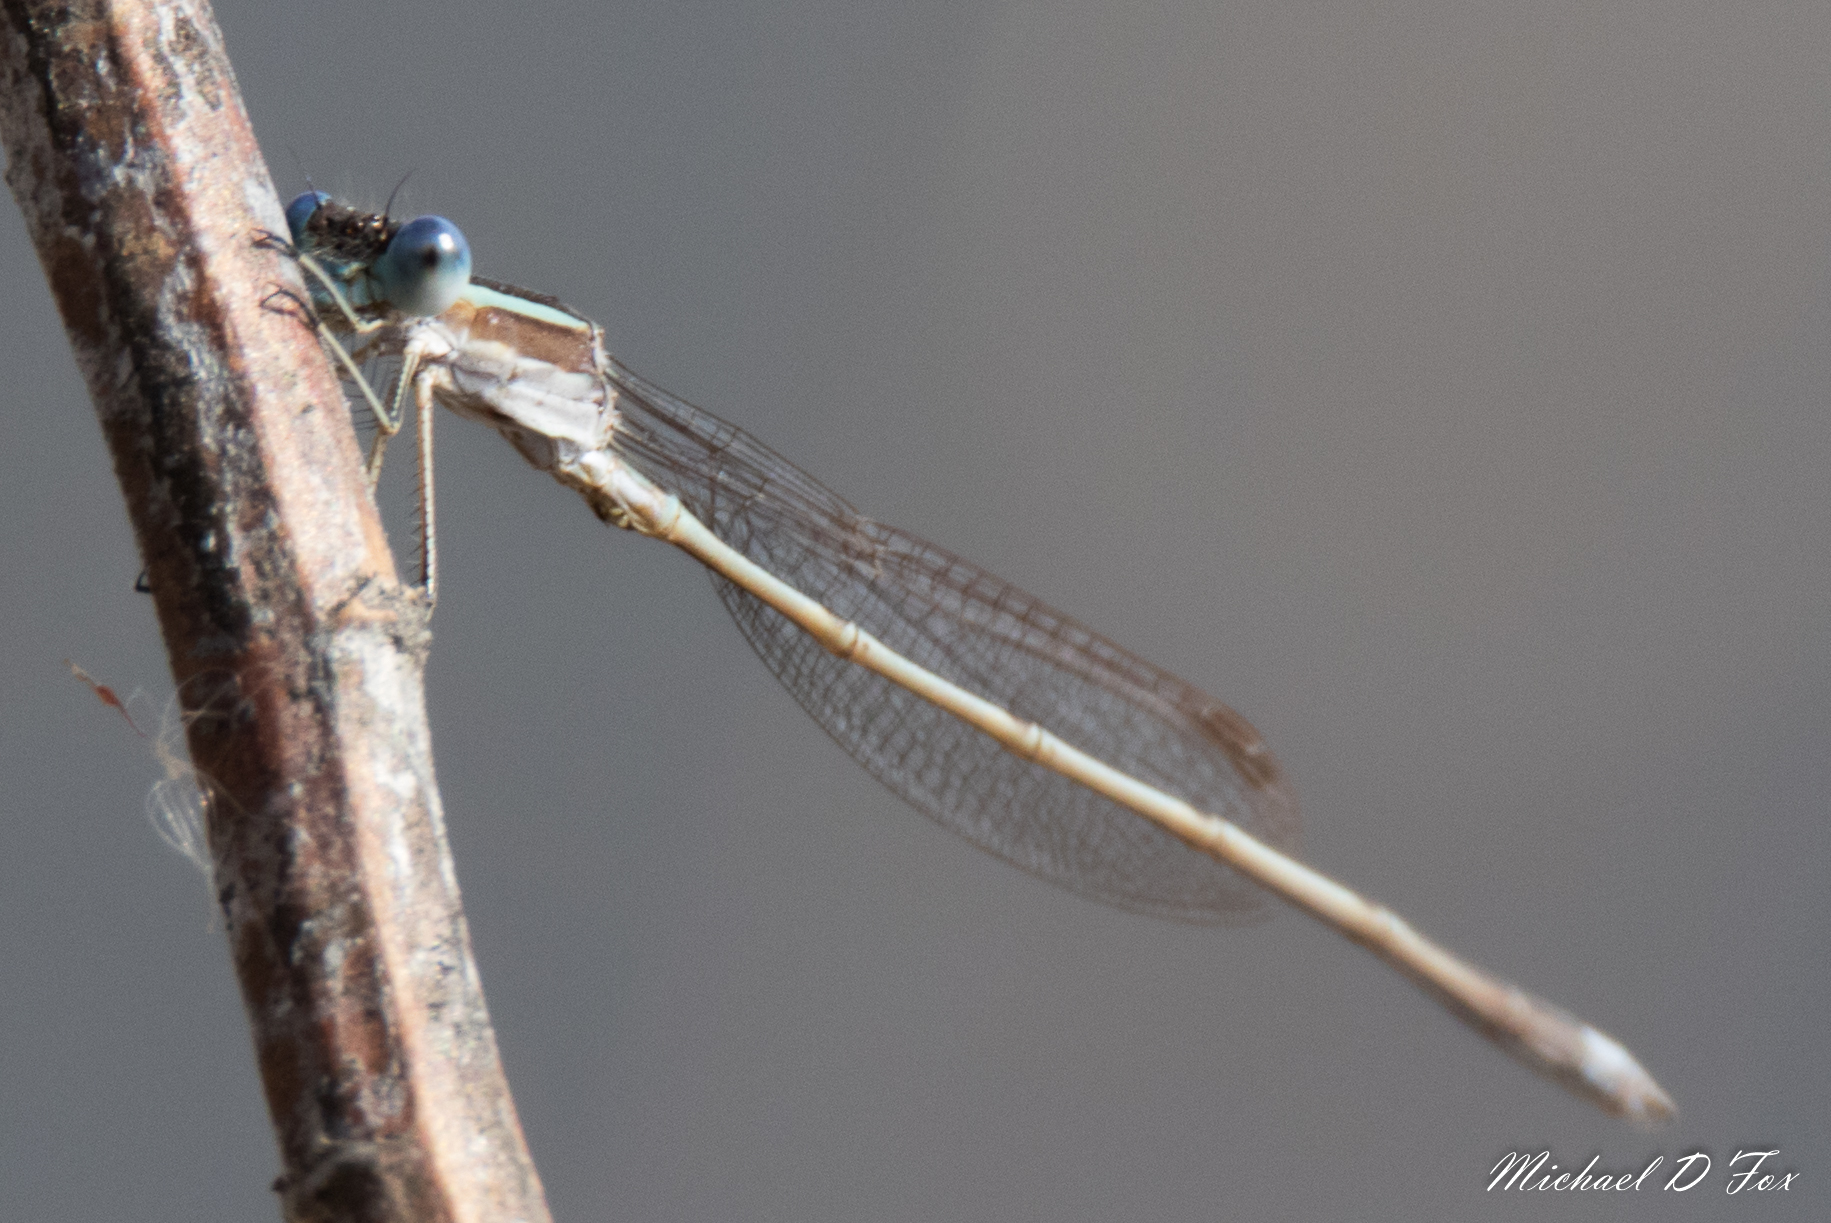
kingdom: Animalia
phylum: Arthropoda
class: Insecta
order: Odonata
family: Lestidae
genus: Lestes
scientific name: Lestes australis
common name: Southern spreadwing
